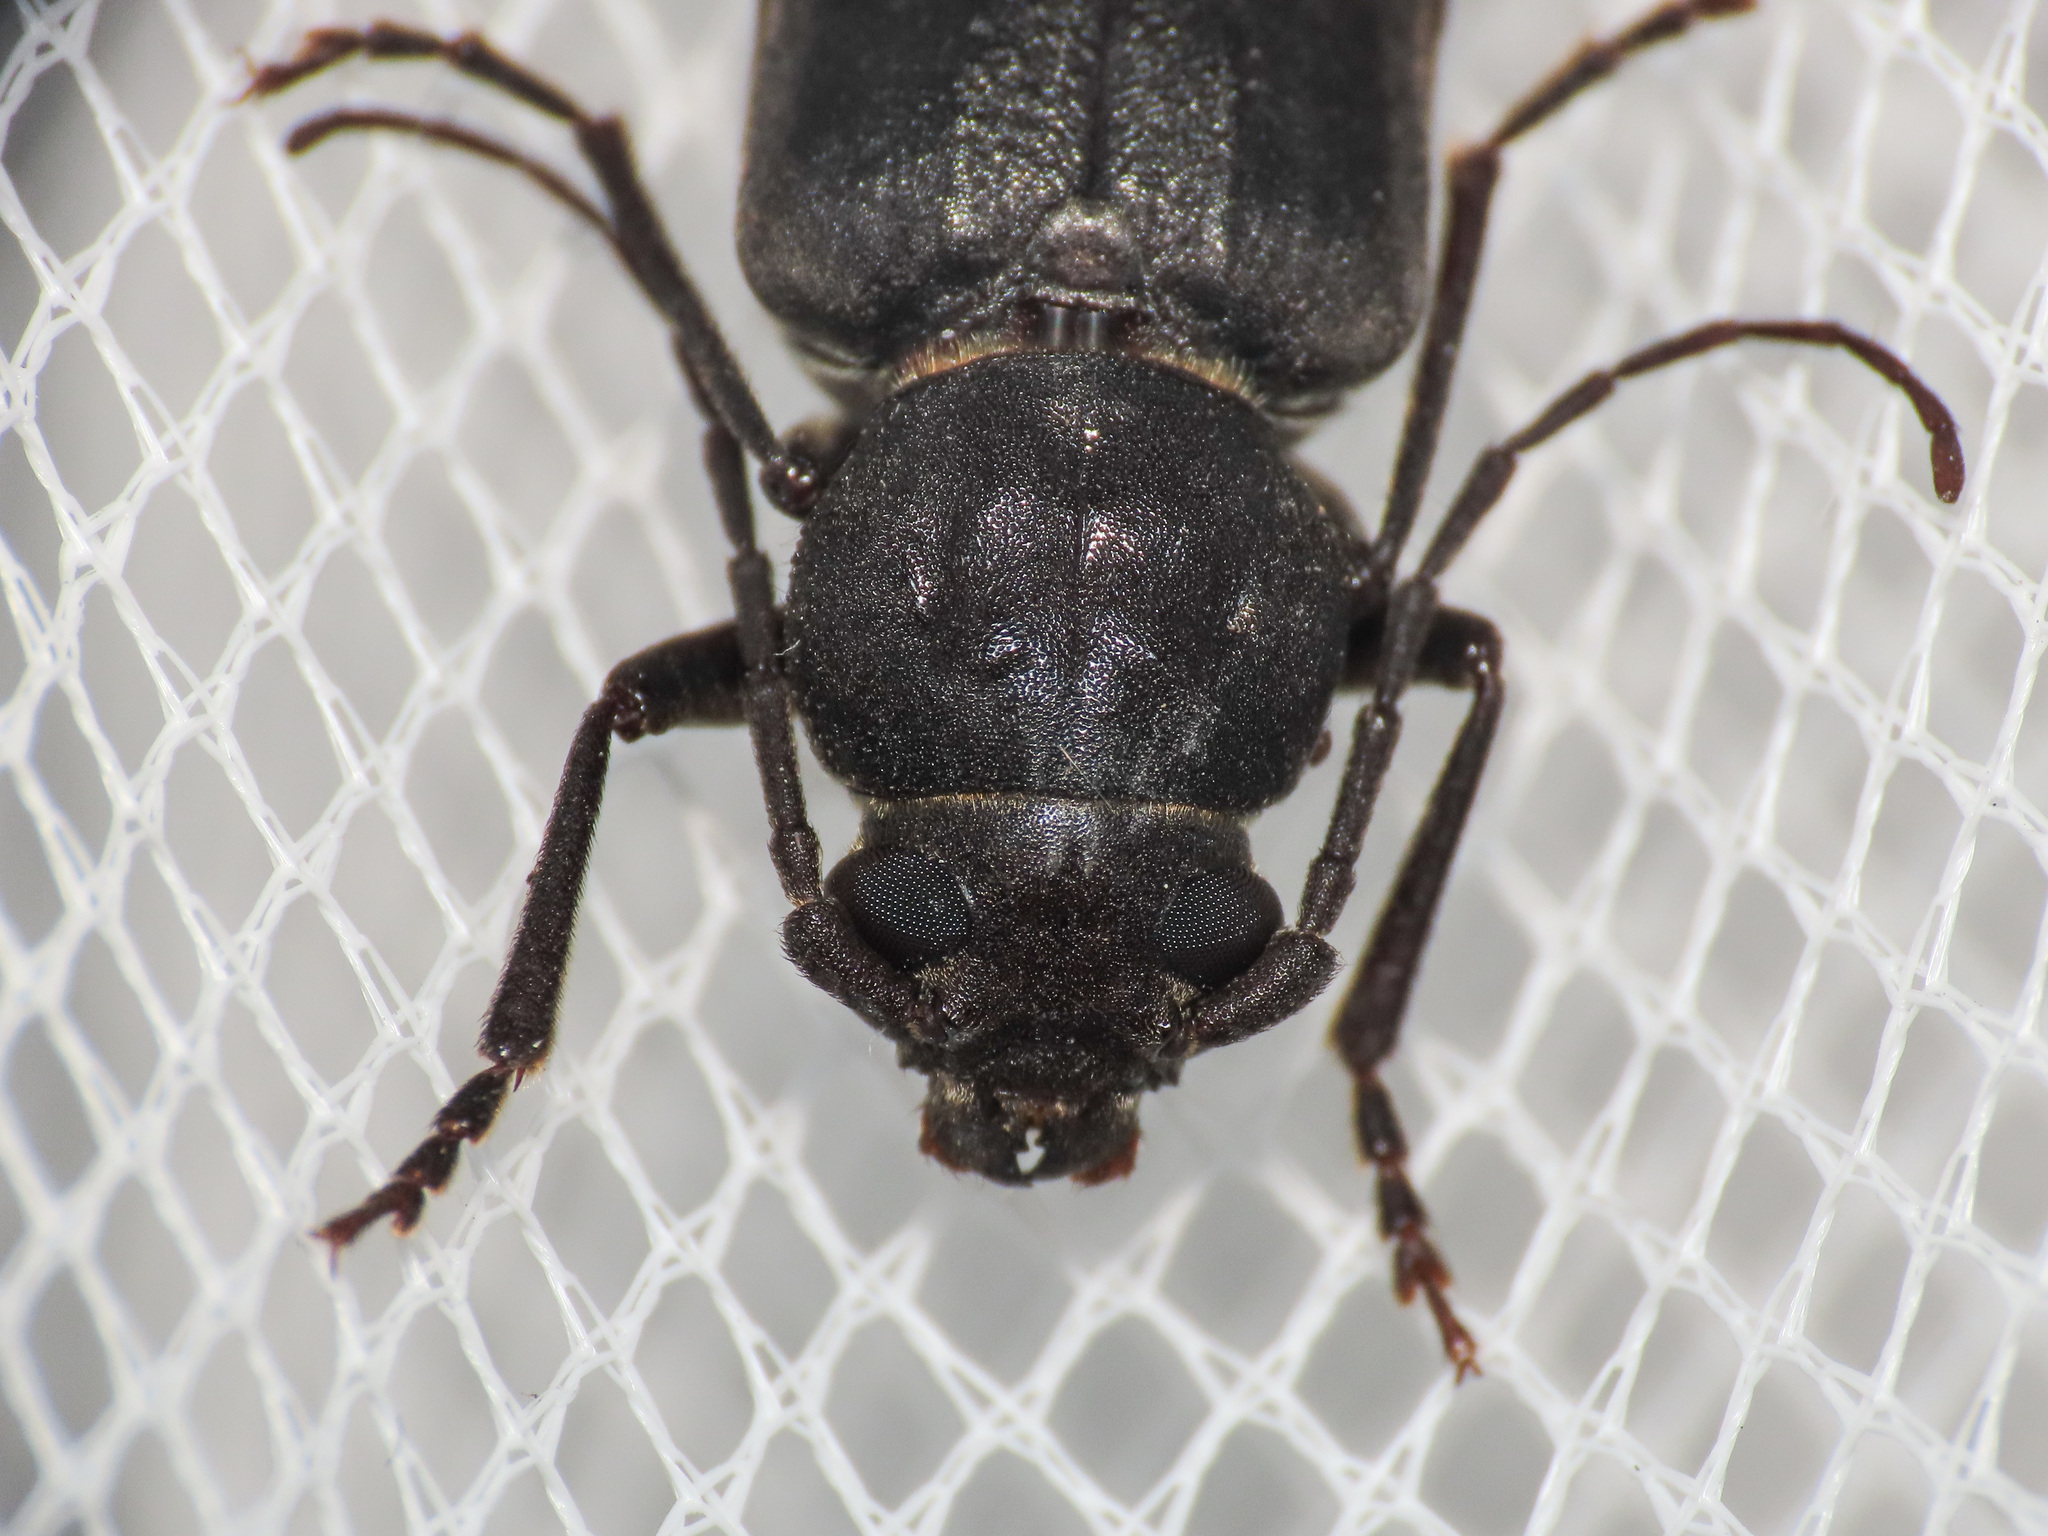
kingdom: Animalia
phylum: Arthropoda
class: Insecta
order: Coleoptera
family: Cerambycidae
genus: Arhopalus
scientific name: Arhopalus ferus
